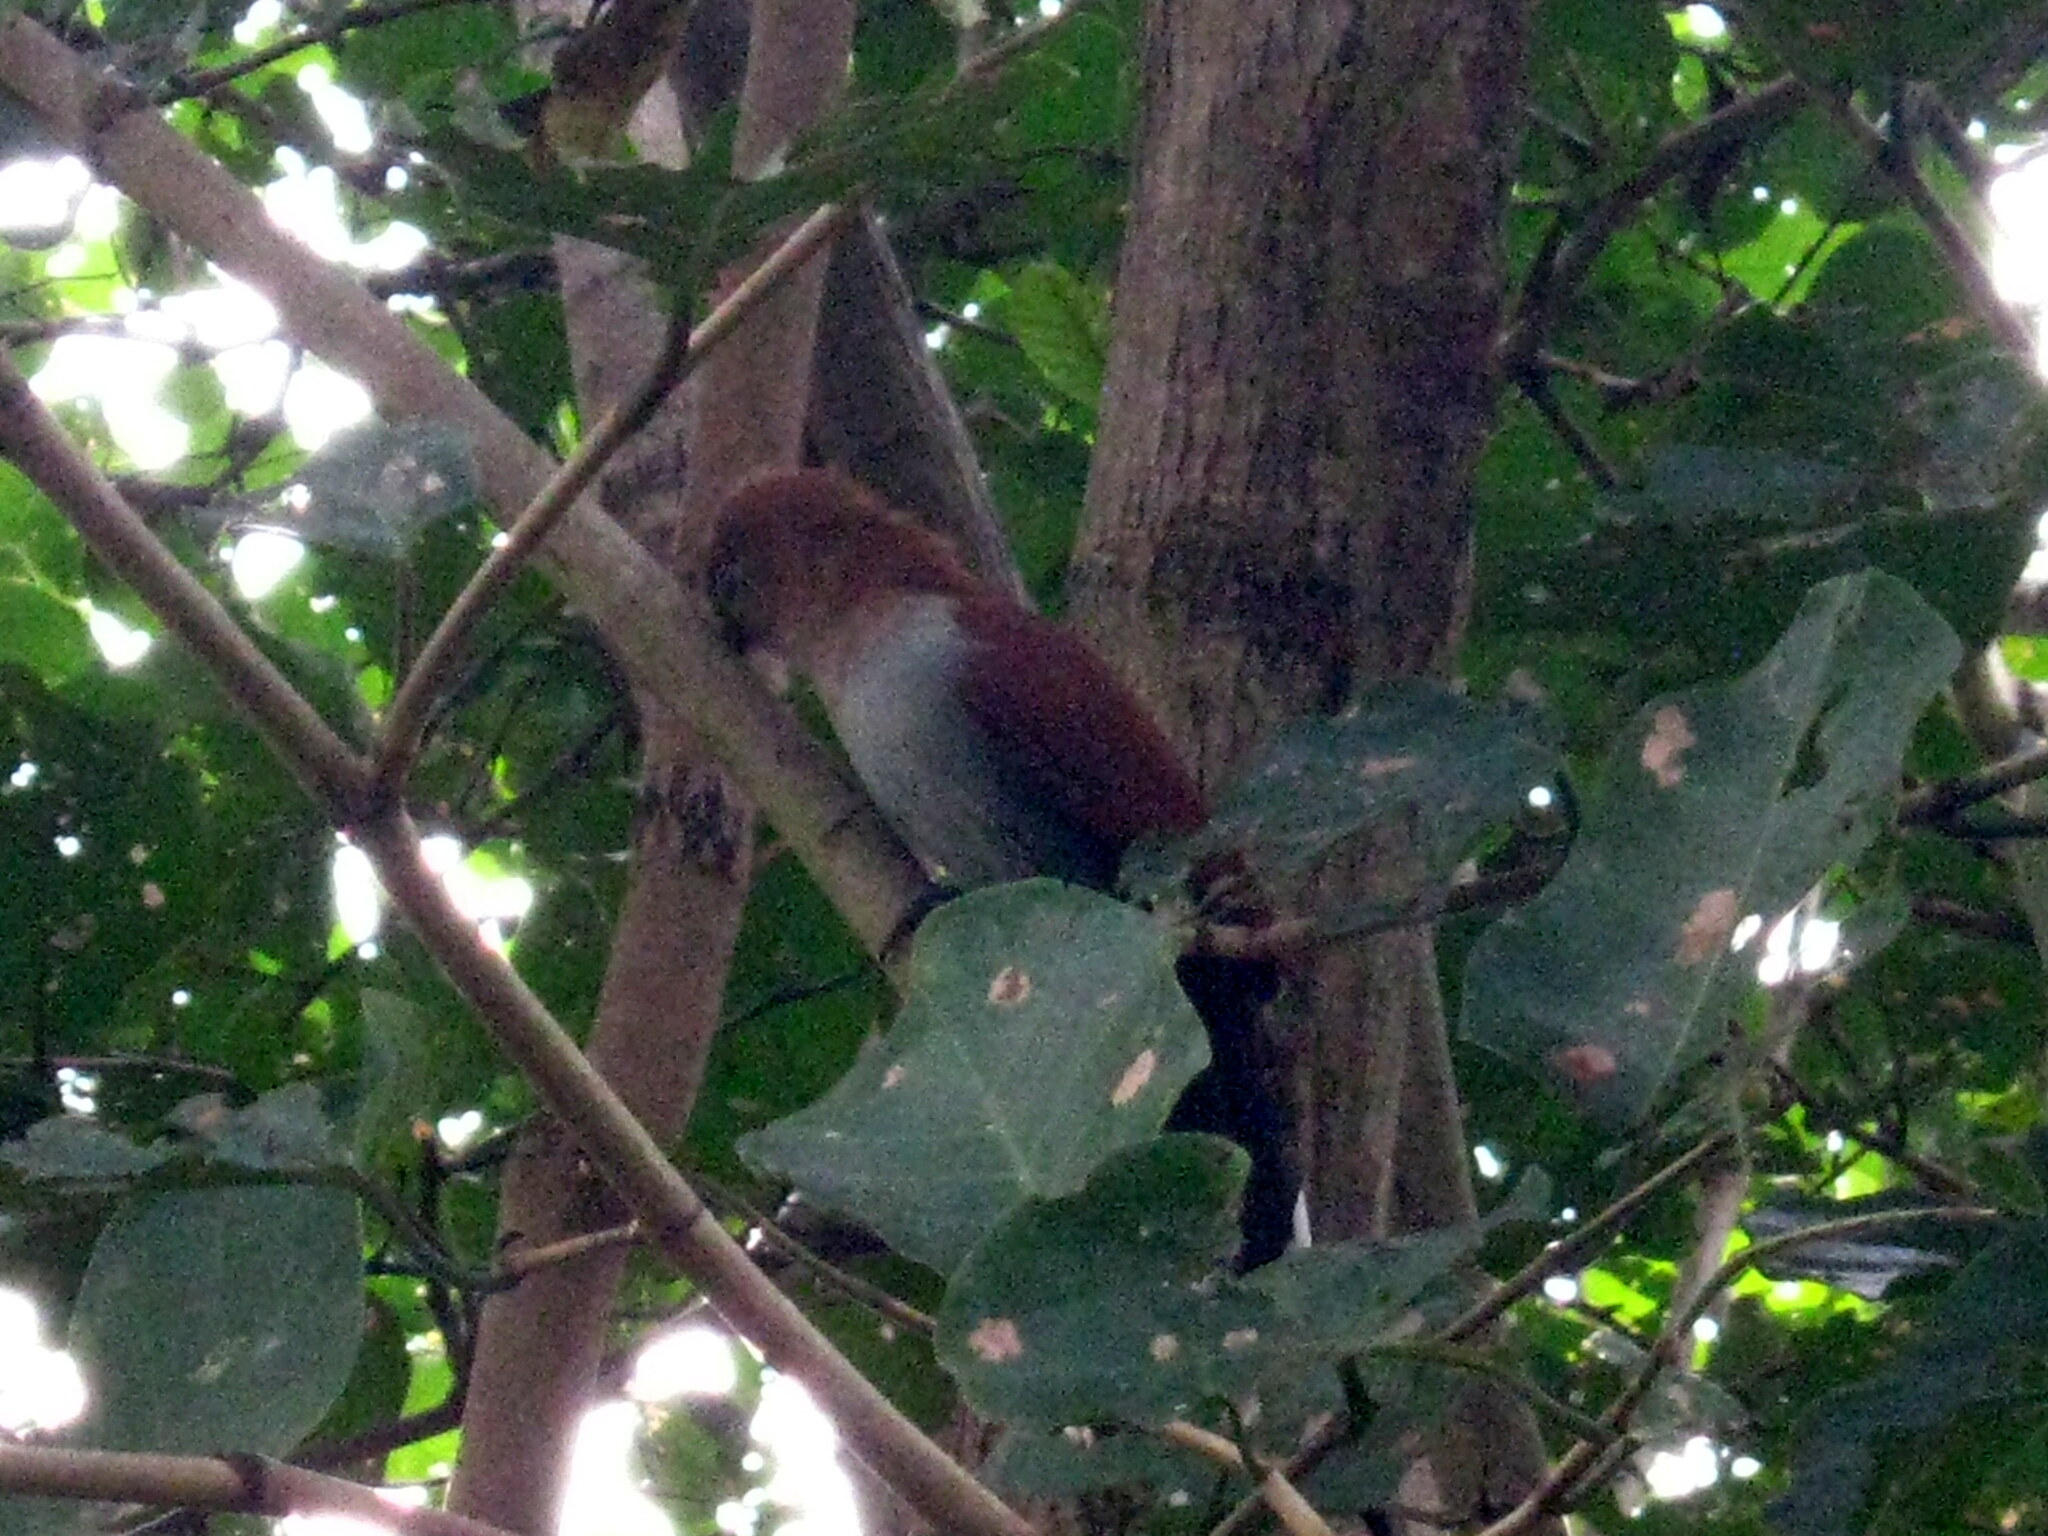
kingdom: Animalia
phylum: Chordata
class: Aves
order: Cuculiformes
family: Cuculidae
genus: Piaya
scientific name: Piaya cayana
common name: Squirrel cuckoo
